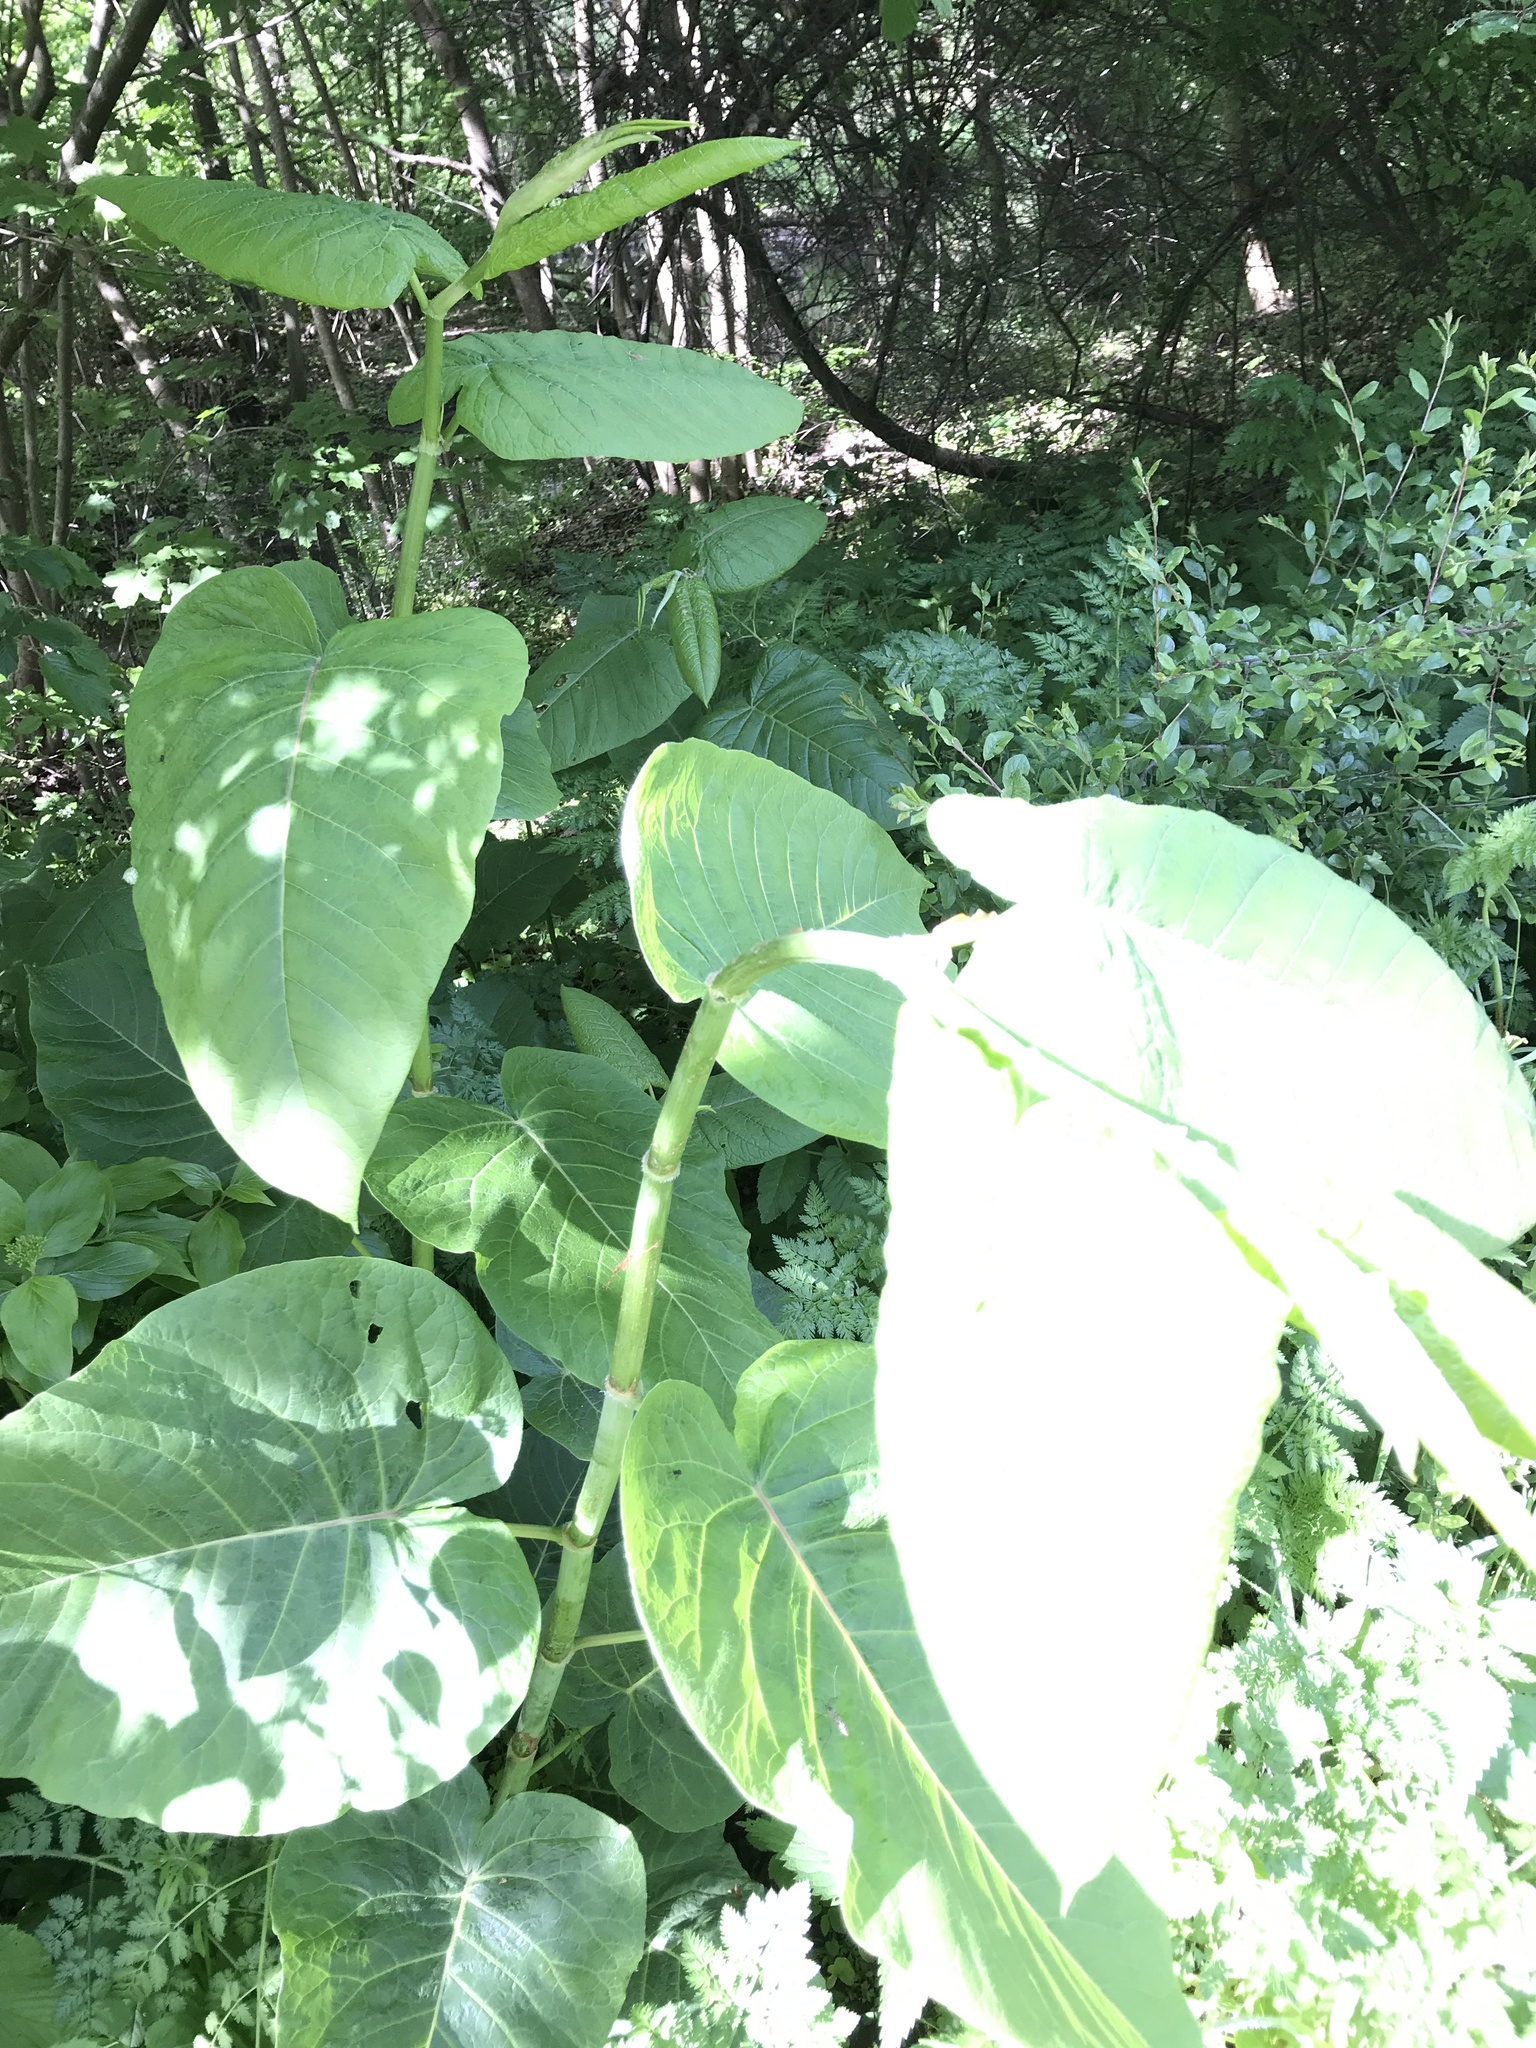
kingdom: Plantae
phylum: Tracheophyta
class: Magnoliopsida
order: Caryophyllales
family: Polygonaceae
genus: Reynoutria
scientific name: Reynoutria sachalinensis
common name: Giant knotweed
